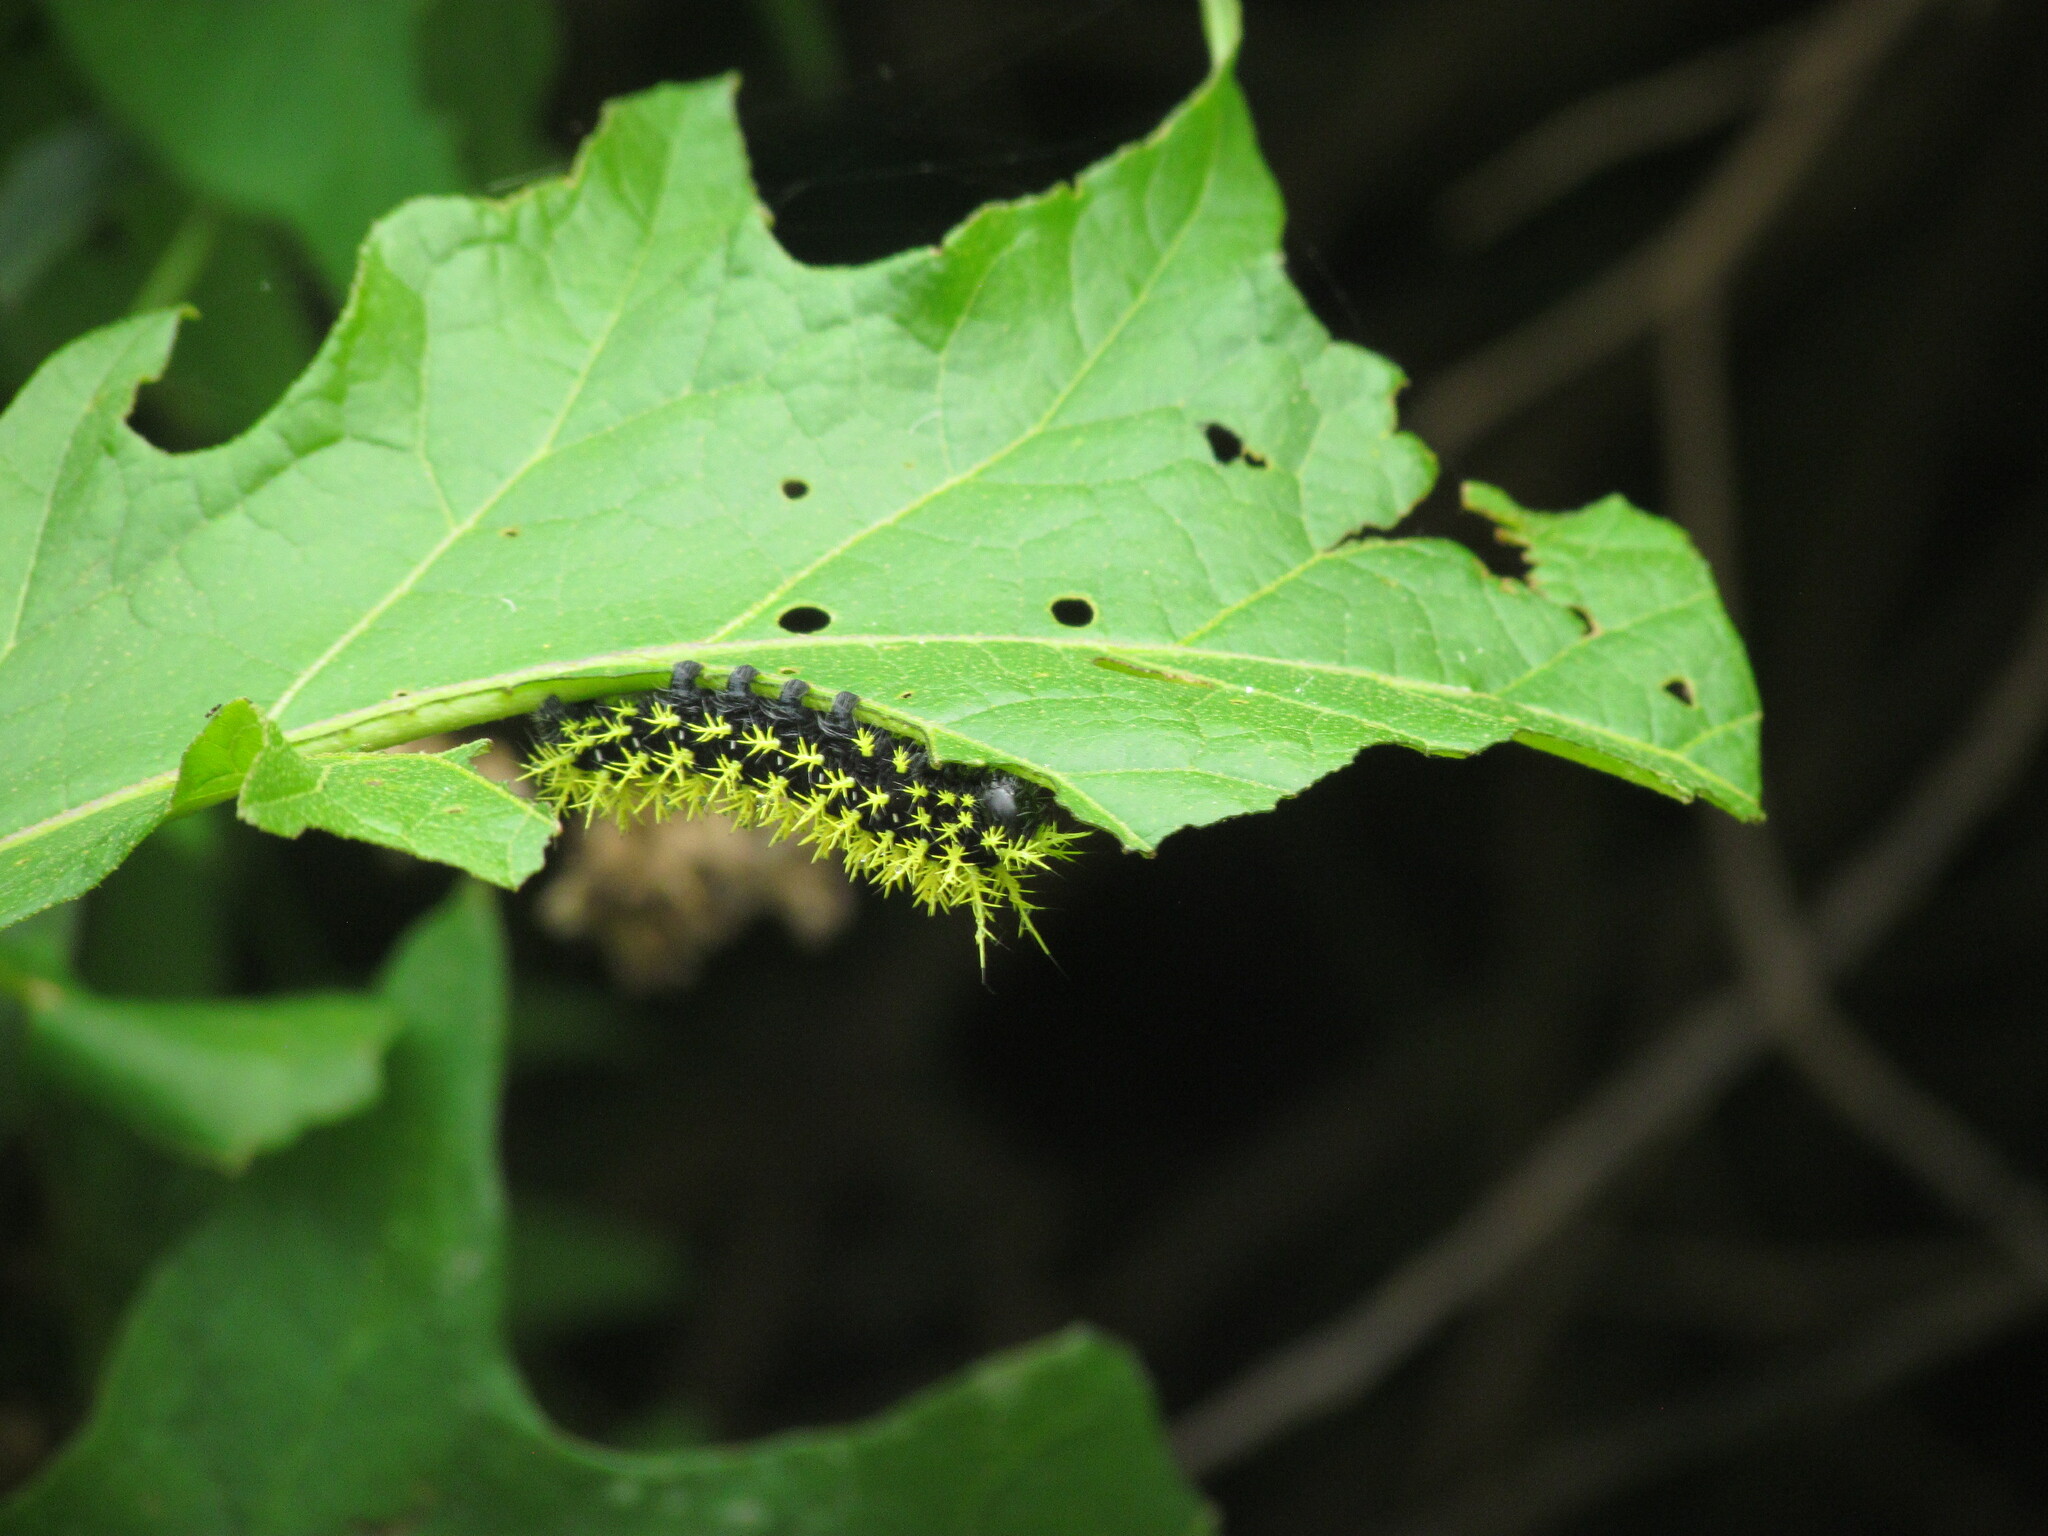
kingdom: Animalia
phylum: Arthropoda
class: Insecta
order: Lepidoptera
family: Saturniidae
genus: Leucanella
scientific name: Leucanella viridescens
